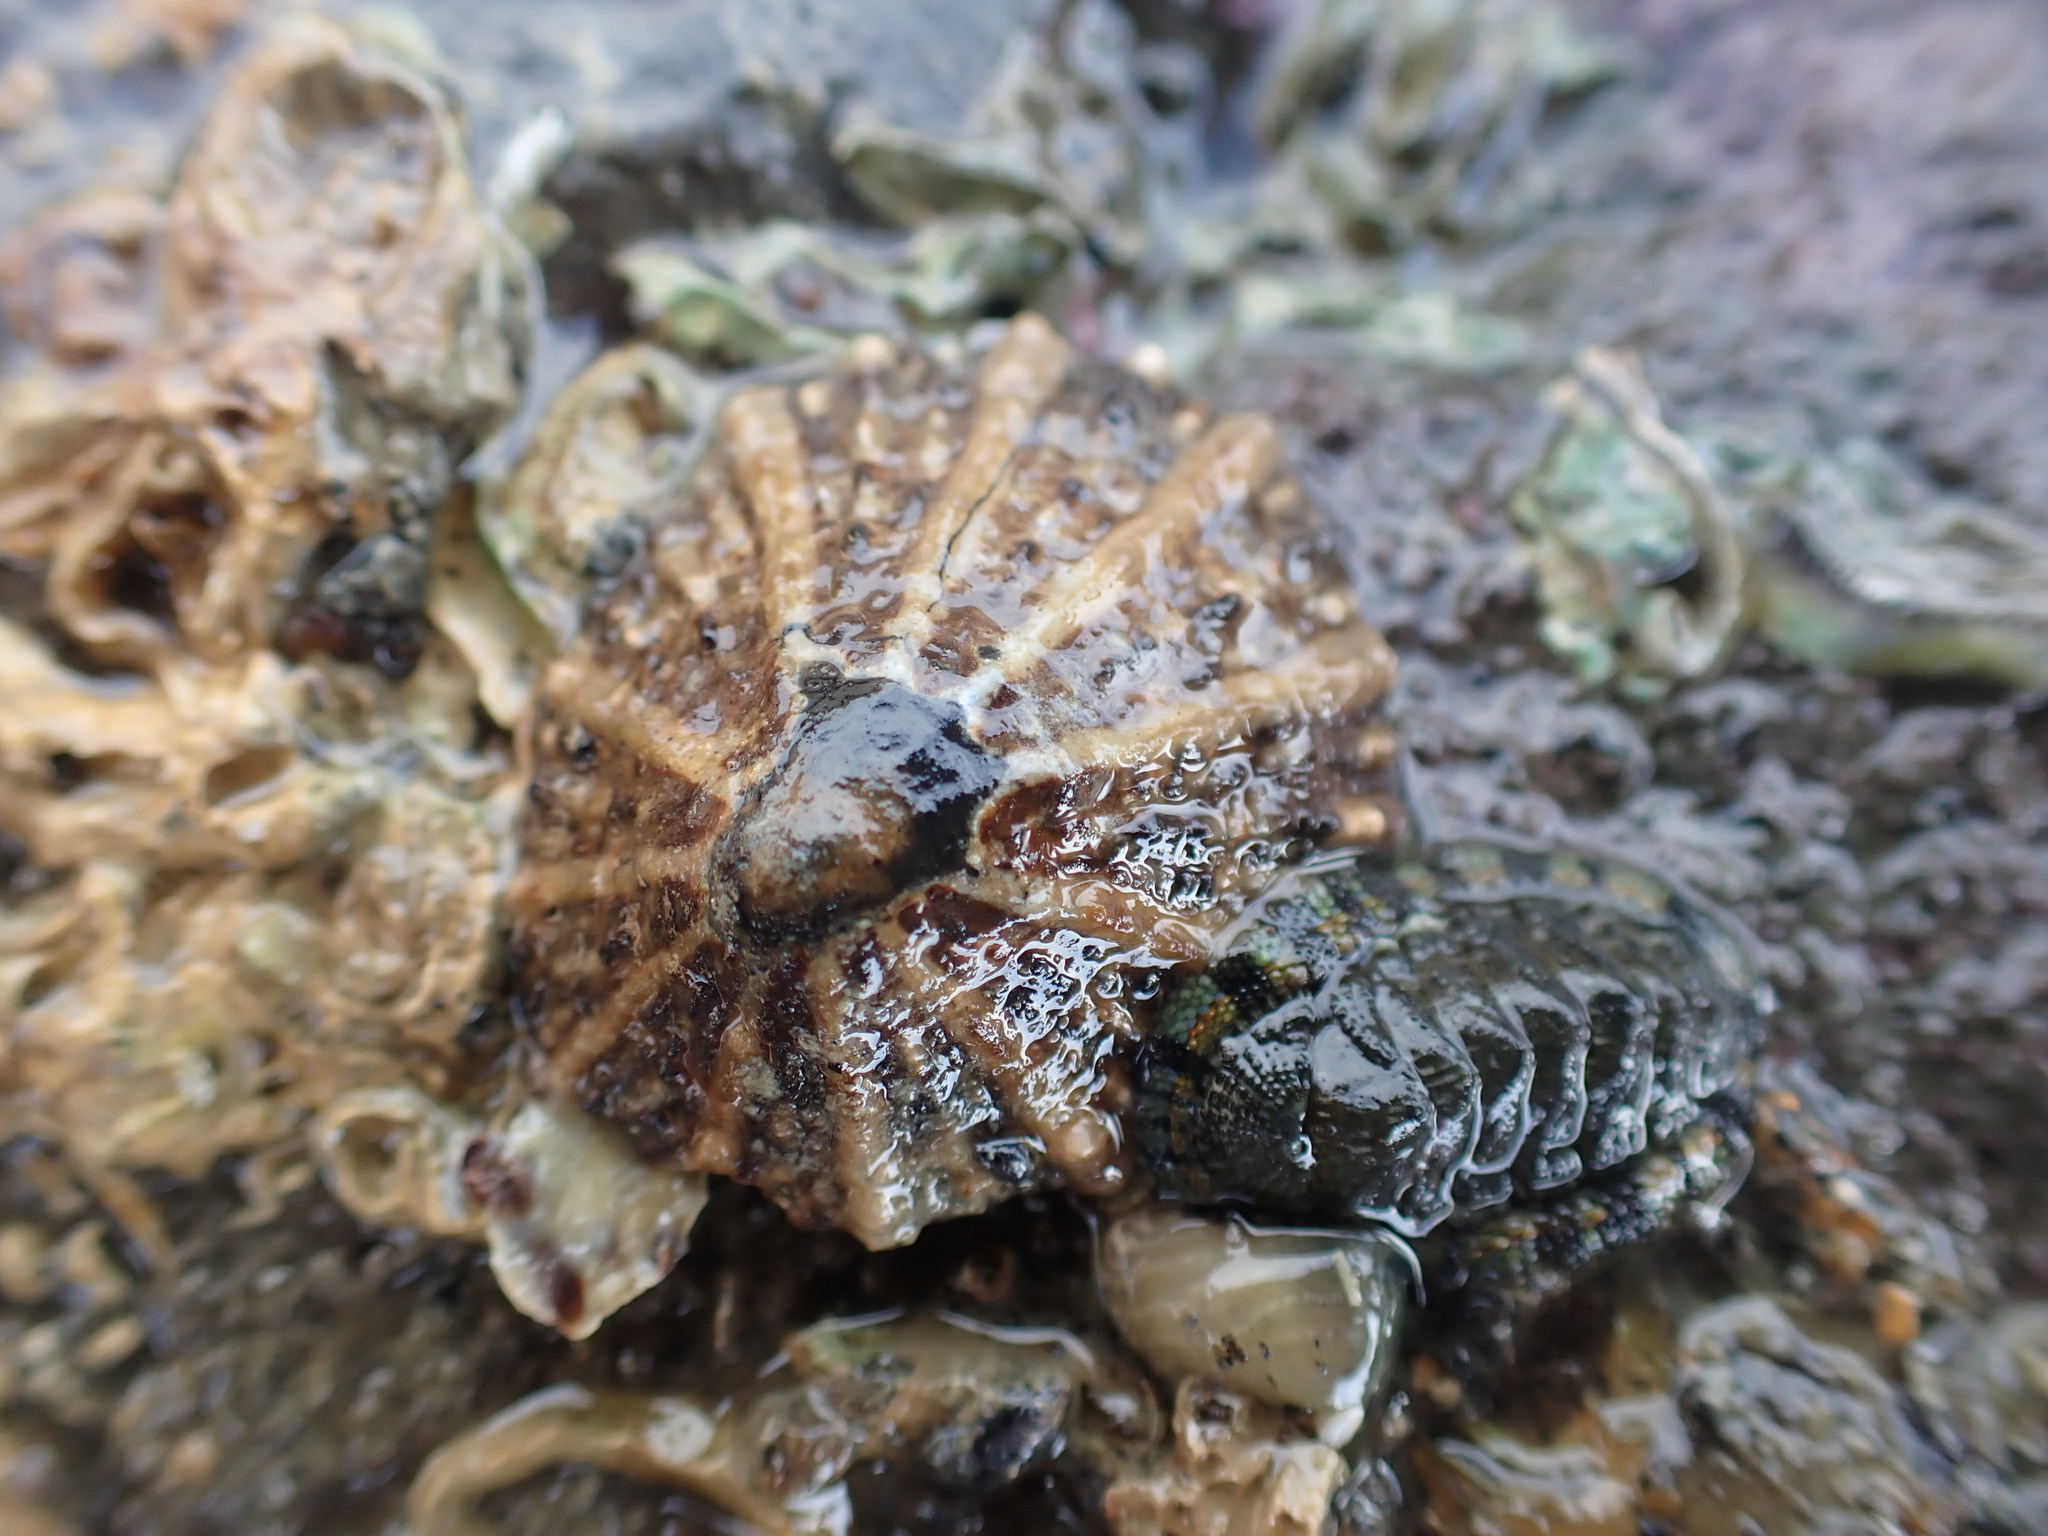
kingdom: Animalia
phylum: Mollusca
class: Gastropoda
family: Nacellidae
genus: Cellana
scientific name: Cellana ornata
